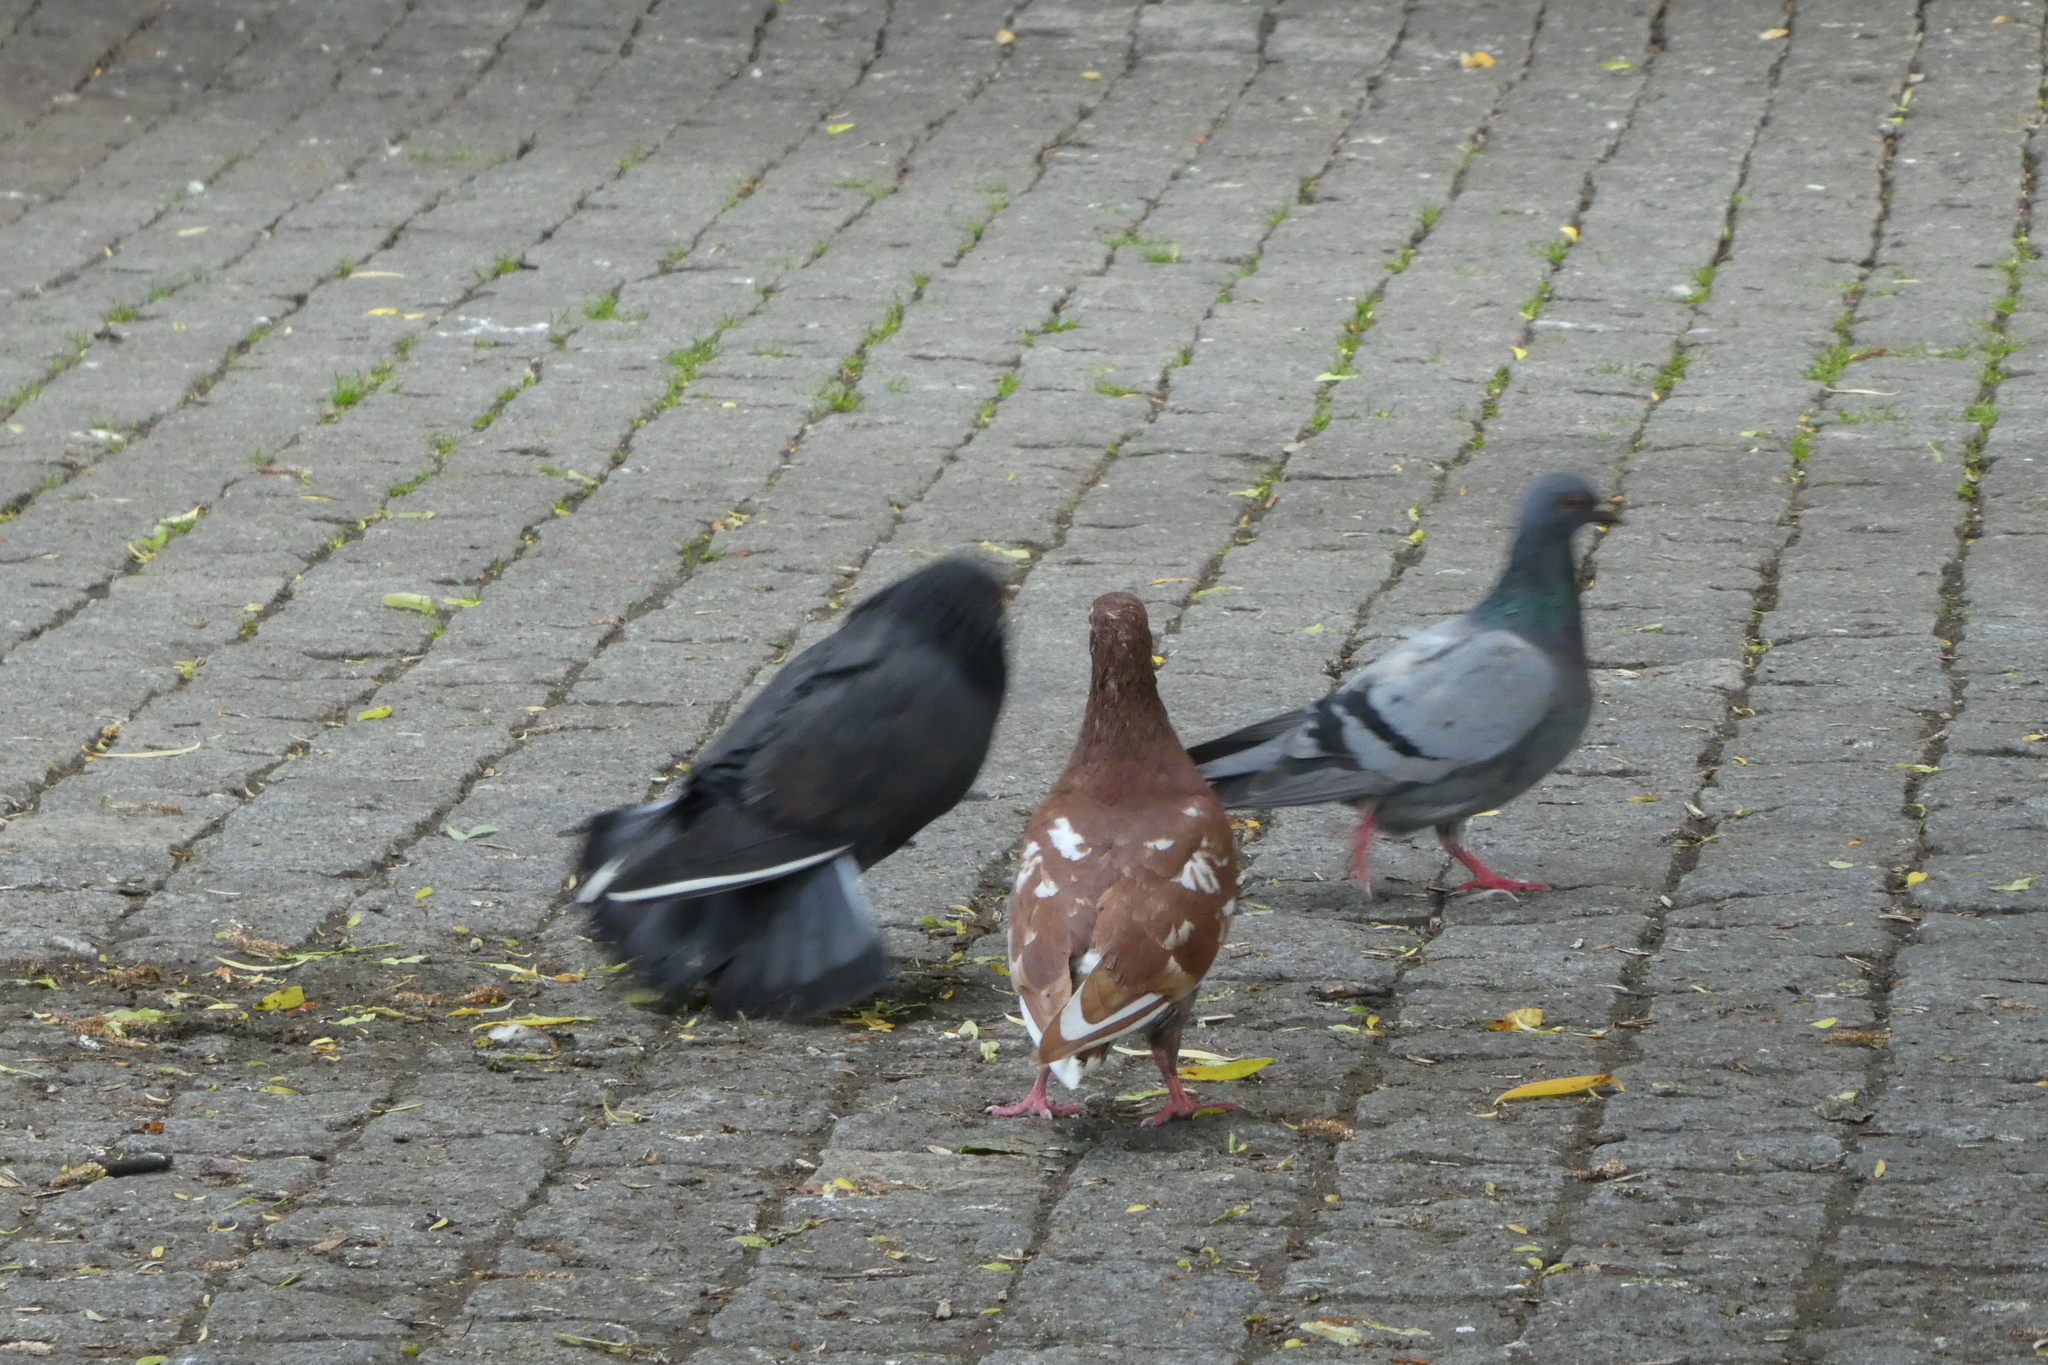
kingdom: Animalia
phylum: Chordata
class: Aves
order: Columbiformes
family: Columbidae
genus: Columba
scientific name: Columba livia
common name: Rock pigeon
